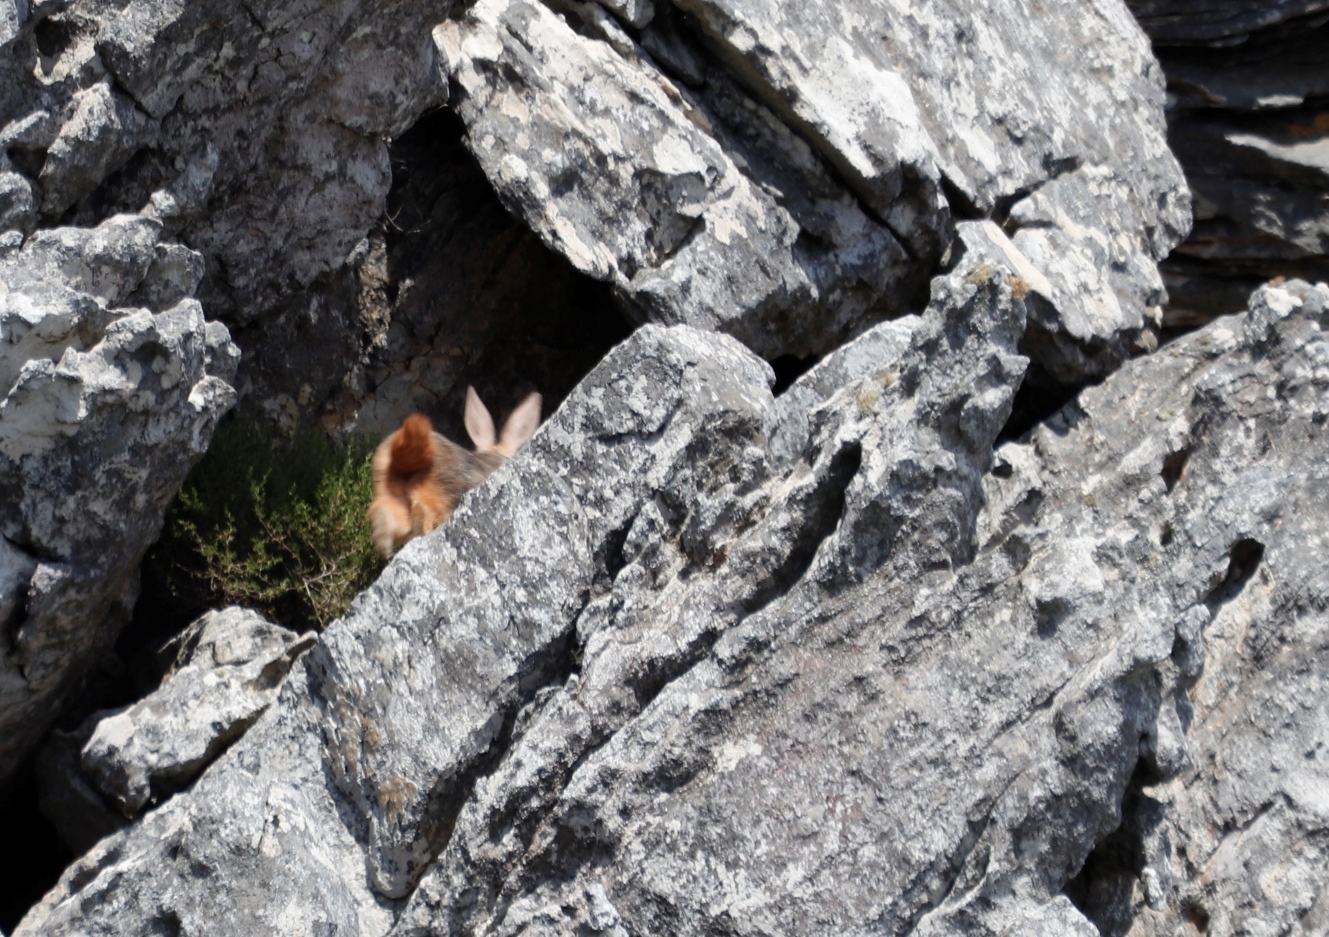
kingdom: Animalia
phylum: Chordata
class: Mammalia
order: Lagomorpha
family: Leporidae
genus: Pronolagus
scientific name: Pronolagus saundersiae
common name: Hewitt's red rock hare
